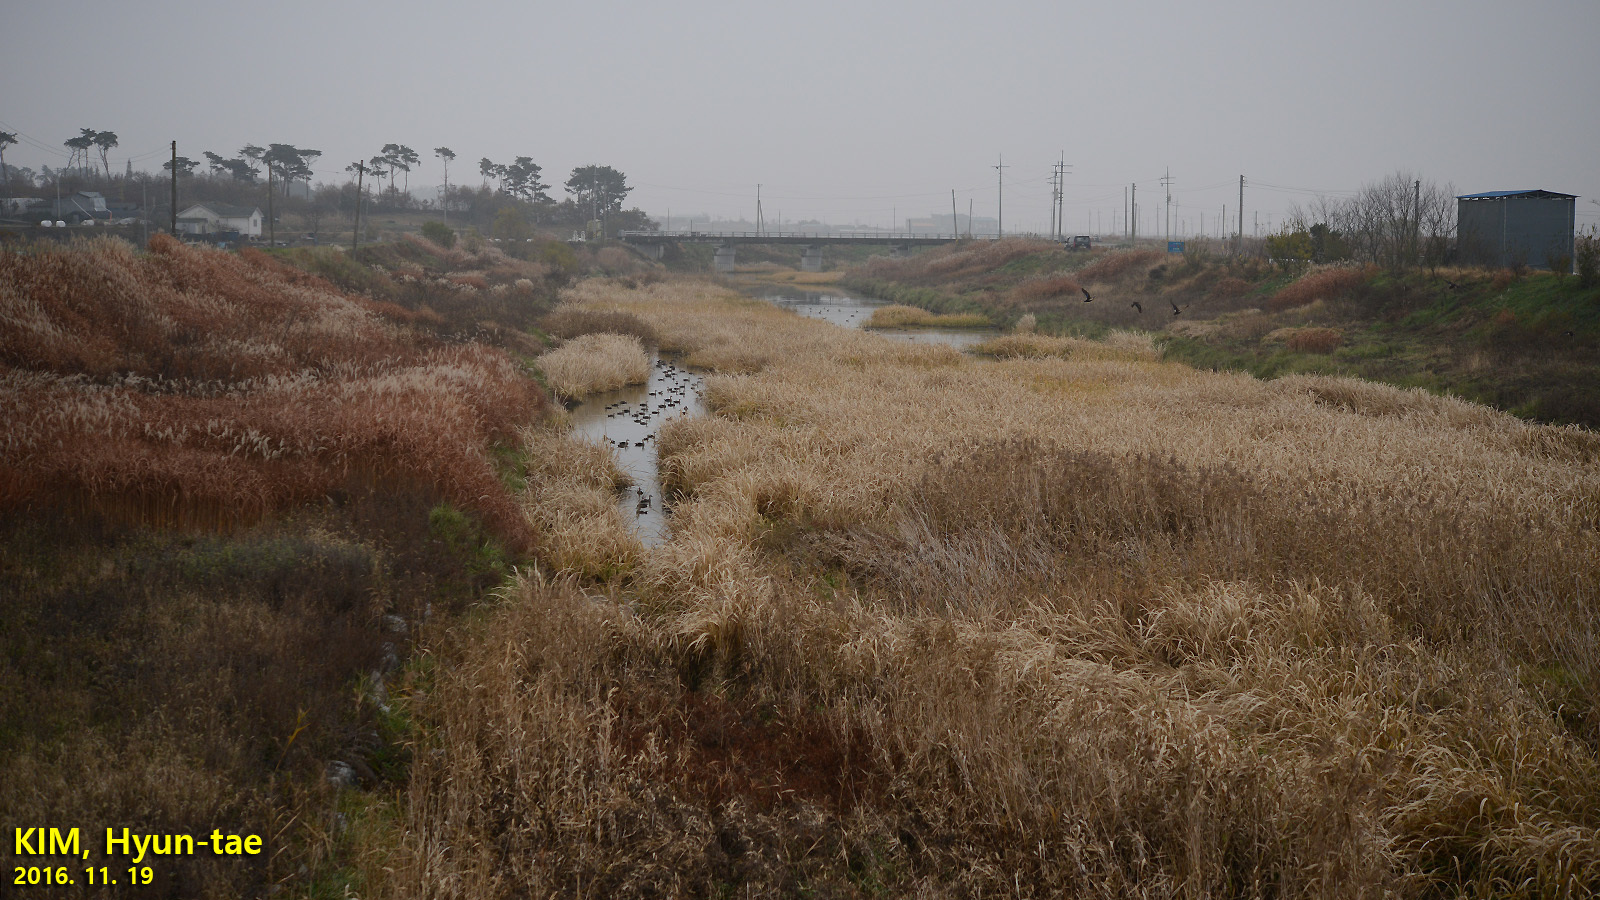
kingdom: Animalia
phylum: Chordata
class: Aves
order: Anseriformes
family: Anatidae
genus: Anas
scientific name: Anas zonorhyncha
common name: Eastern spot-billed duck
